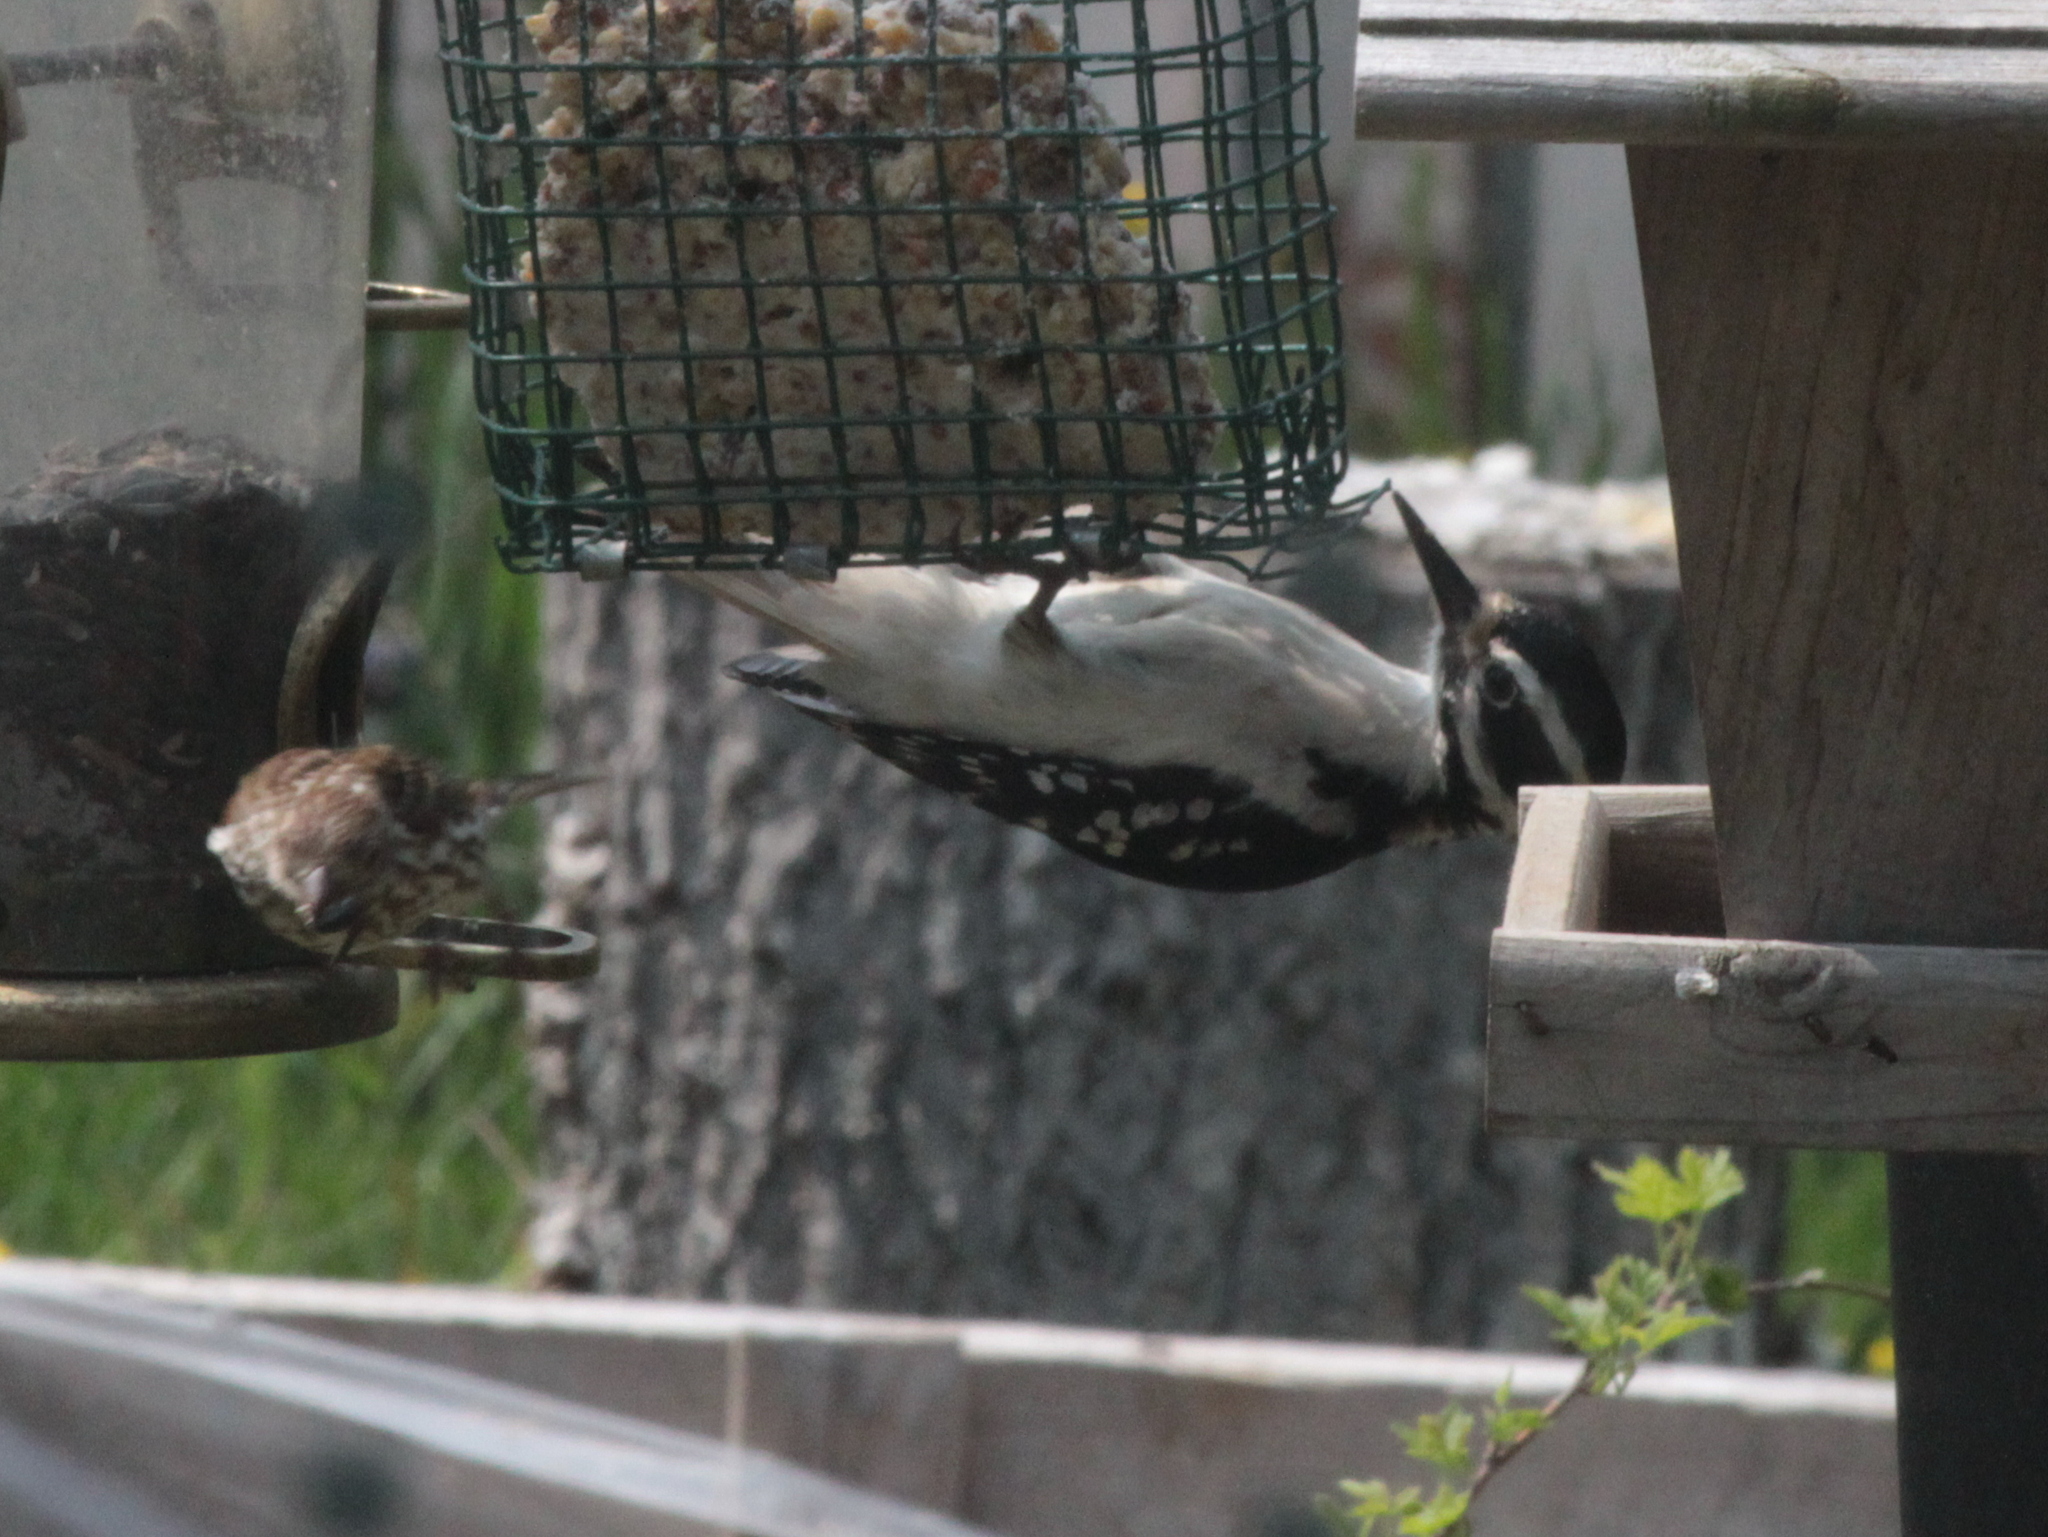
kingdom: Animalia
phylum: Chordata
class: Aves
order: Piciformes
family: Picidae
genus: Leuconotopicus
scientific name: Leuconotopicus villosus
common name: Hairy woodpecker
